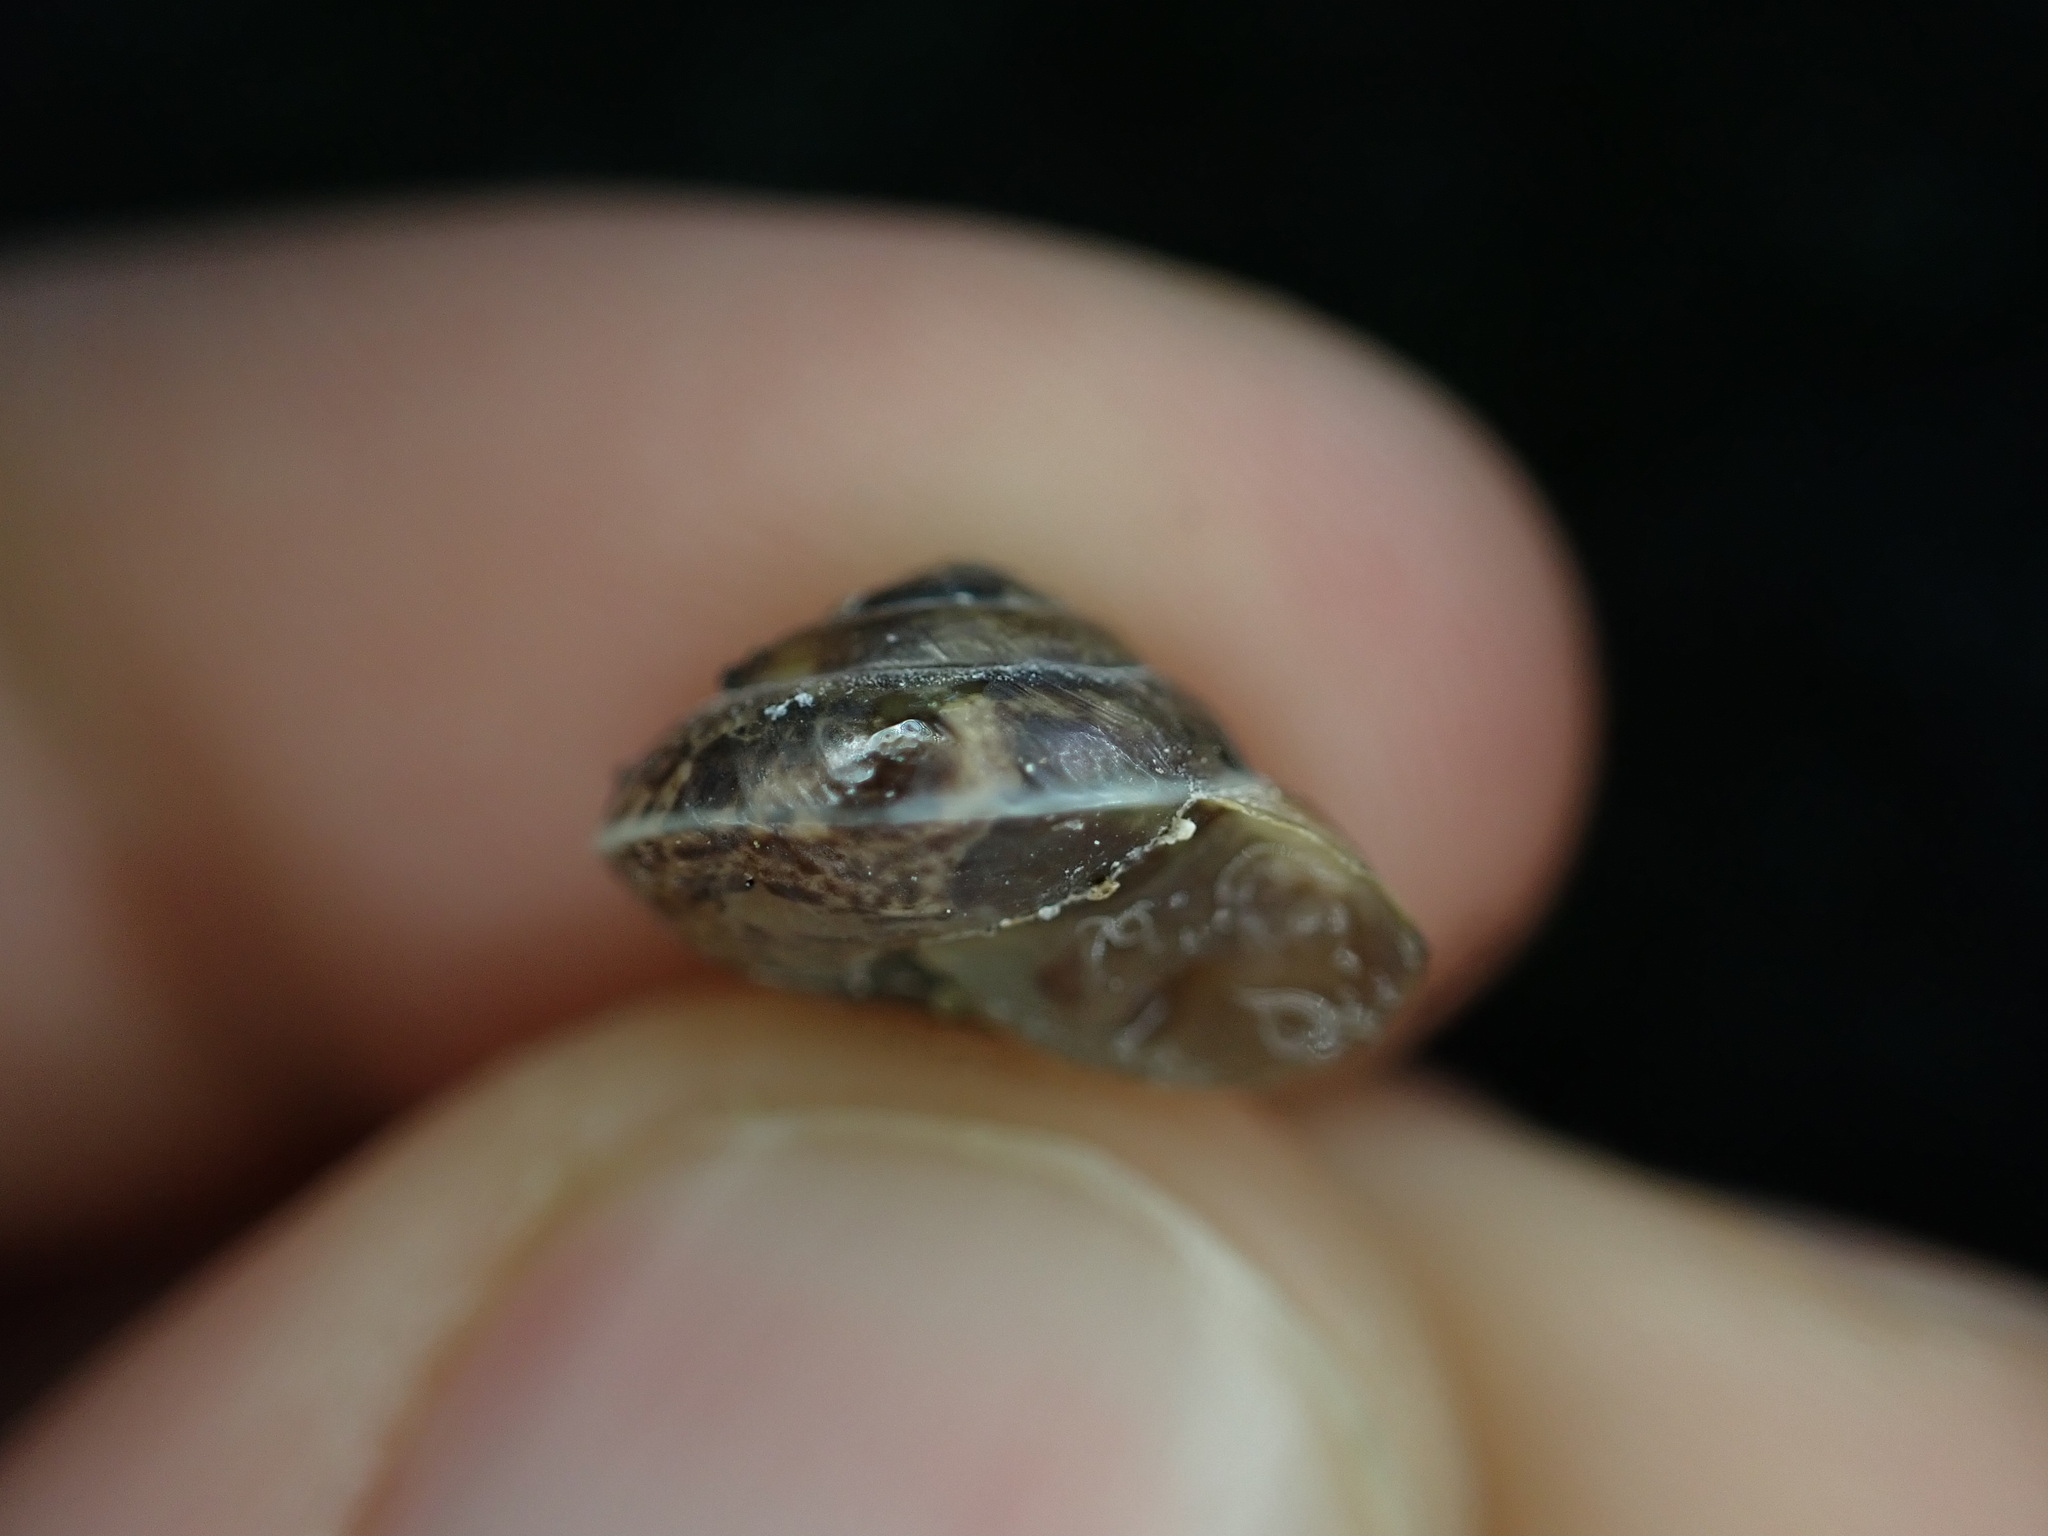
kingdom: Animalia
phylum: Mollusca
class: Gastropoda
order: Stylommatophora
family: Hygromiidae
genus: Hygromia
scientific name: Hygromia cinctella
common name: Girdled snail
